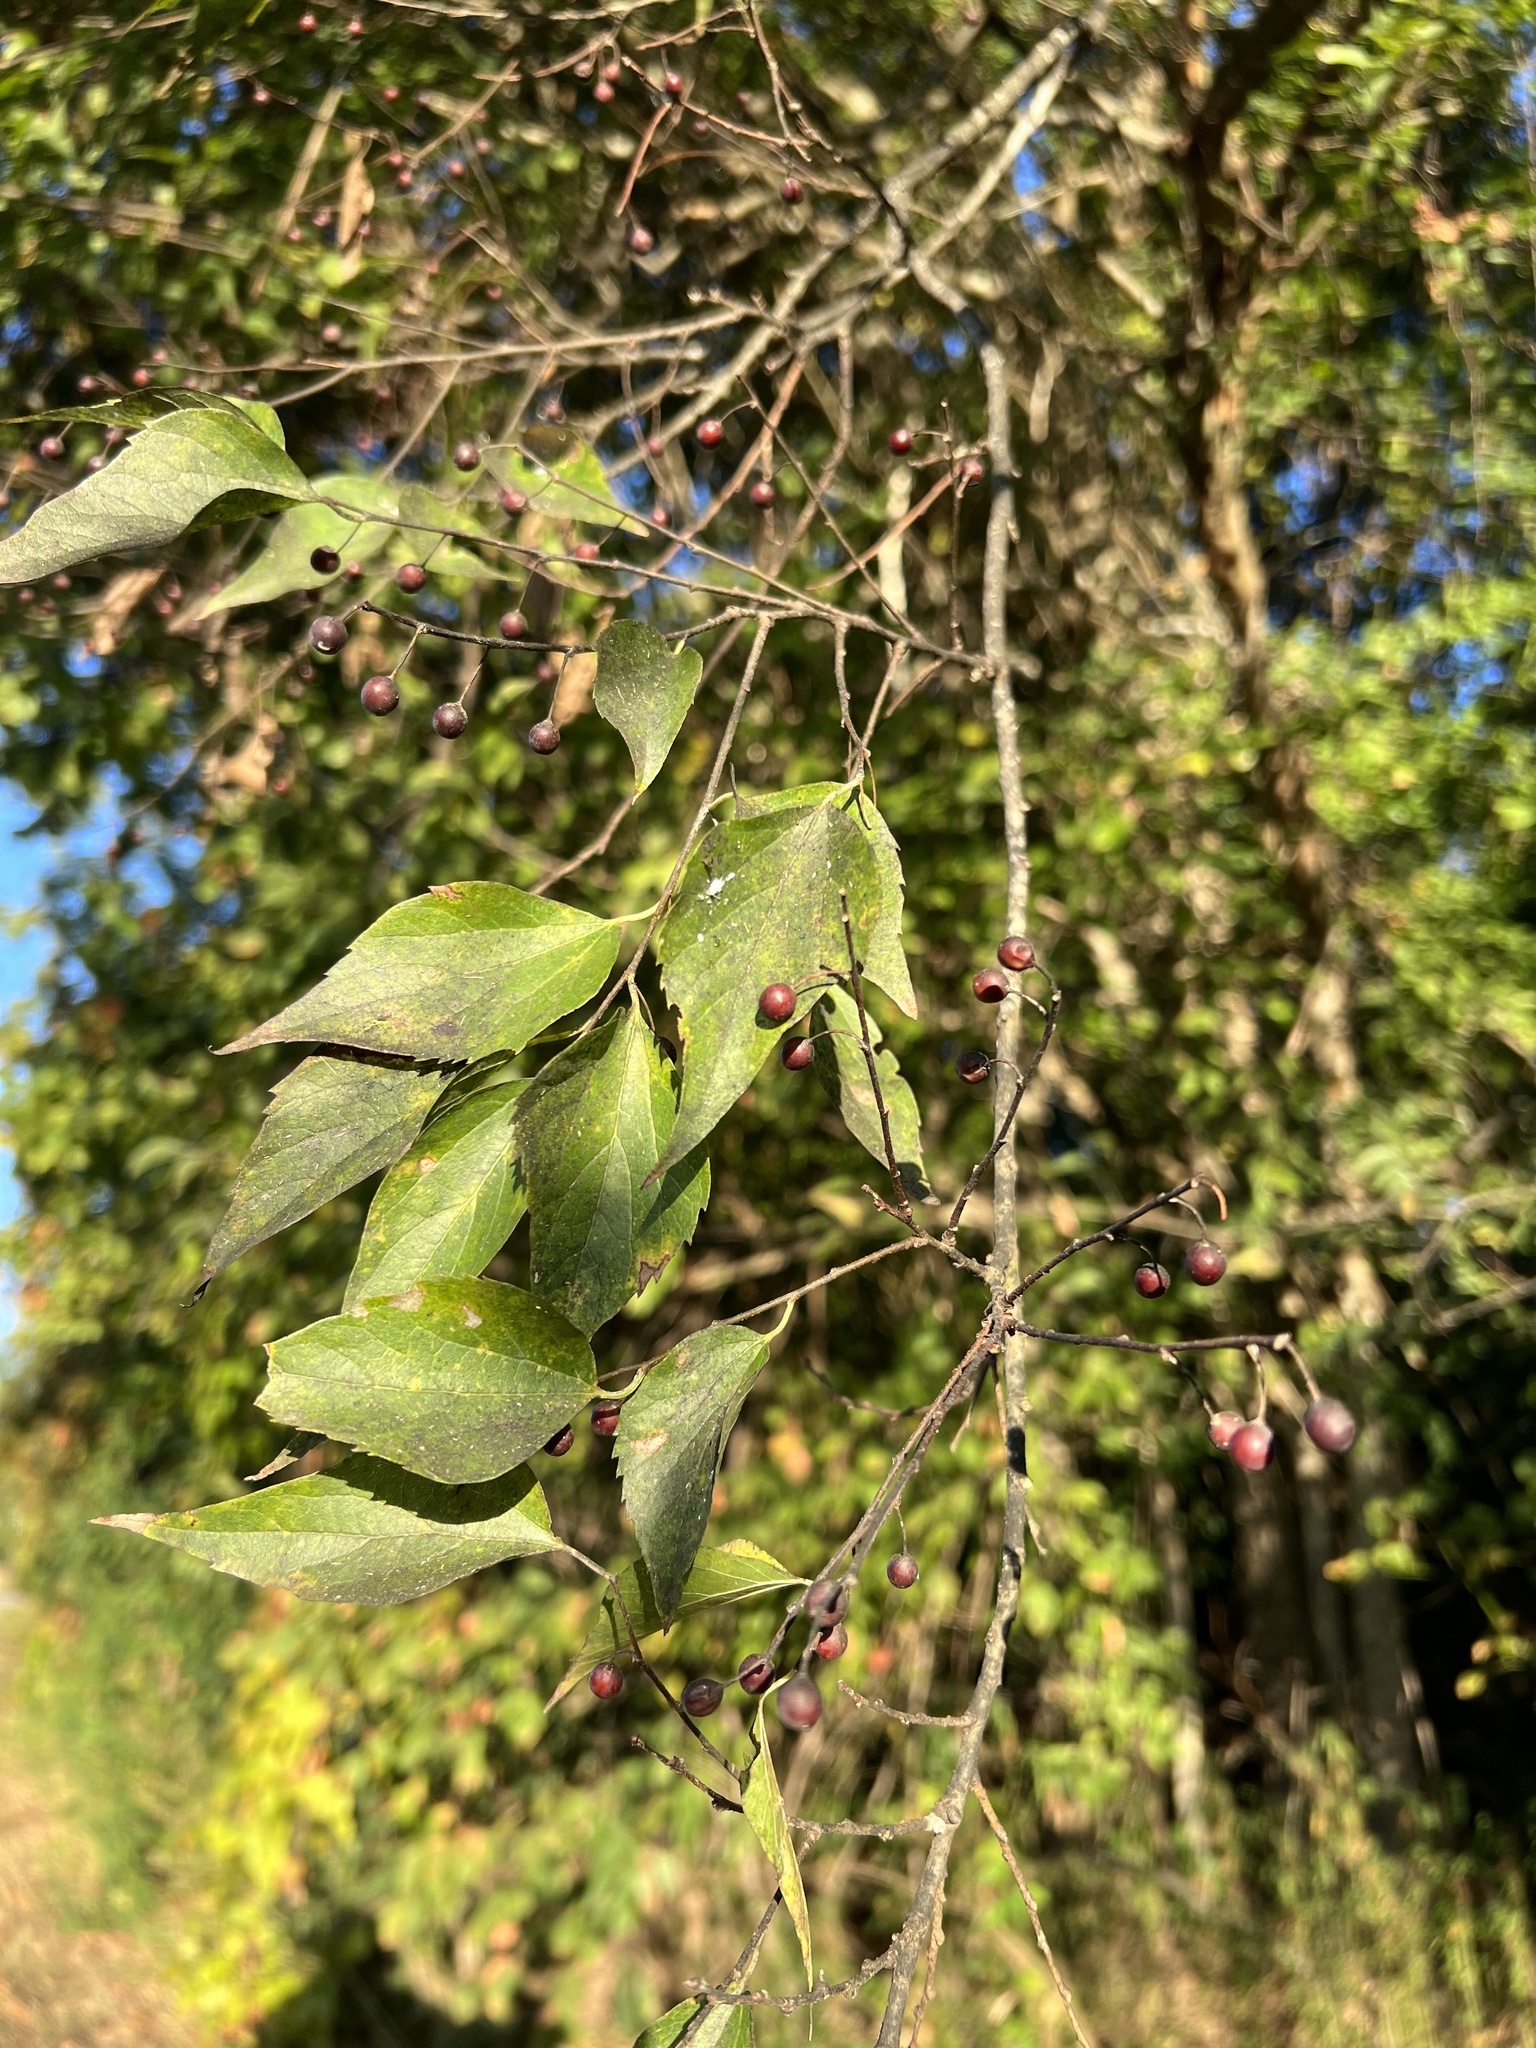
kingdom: Plantae
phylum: Tracheophyta
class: Magnoliopsida
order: Rosales
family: Cannabaceae
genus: Celtis
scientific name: Celtis laevigata
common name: Sugarberry
